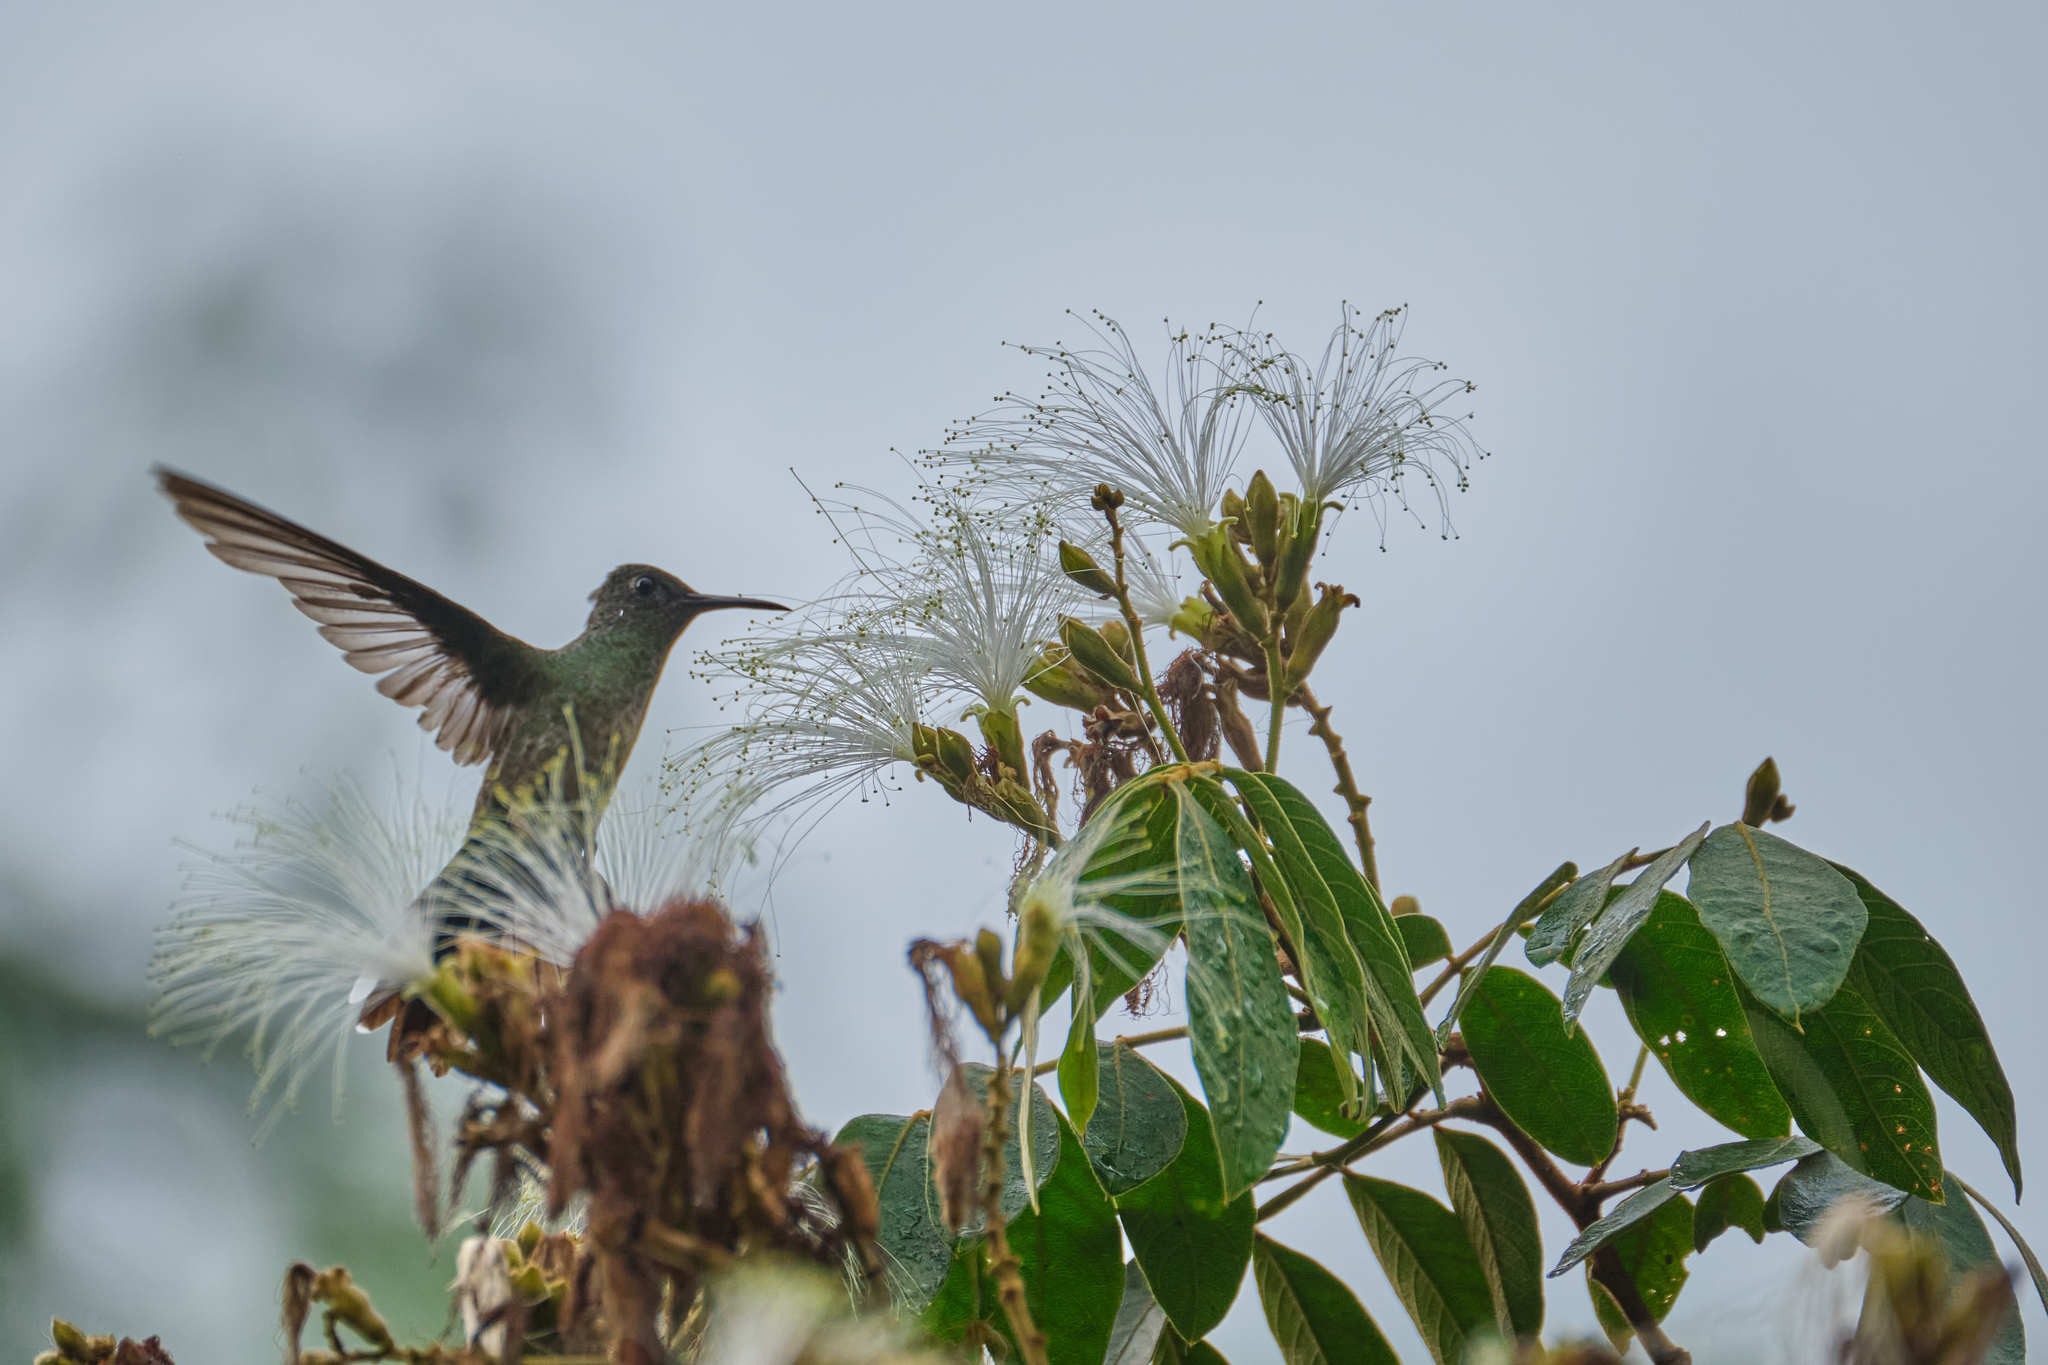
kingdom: Animalia
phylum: Chordata
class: Aves
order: Apodiformes
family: Trochilidae
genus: Phaeochroa
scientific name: Phaeochroa cuvierii
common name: Scaly-breasted hummingbird
